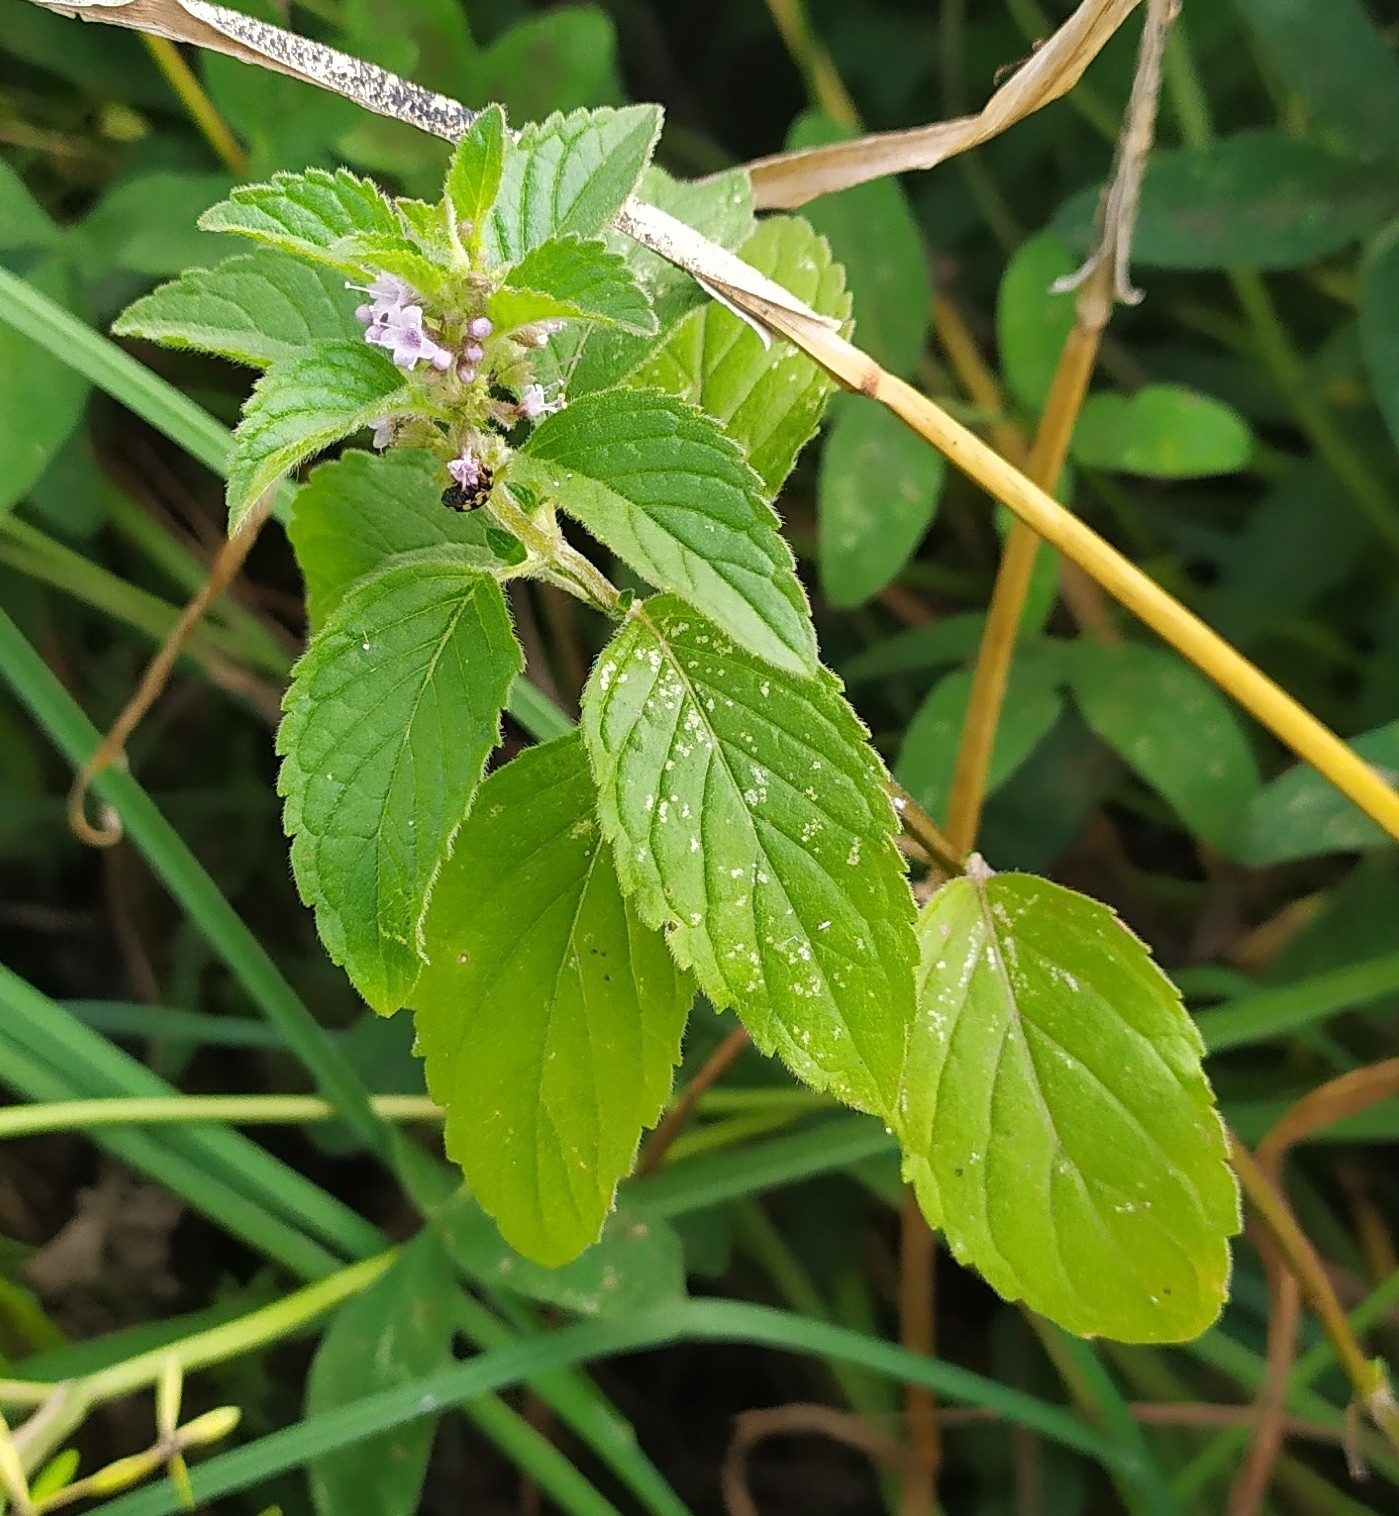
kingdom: Plantae
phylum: Tracheophyta
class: Magnoliopsida
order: Lamiales
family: Lamiaceae
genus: Mentha
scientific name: Mentha arvensis
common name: Corn mint
